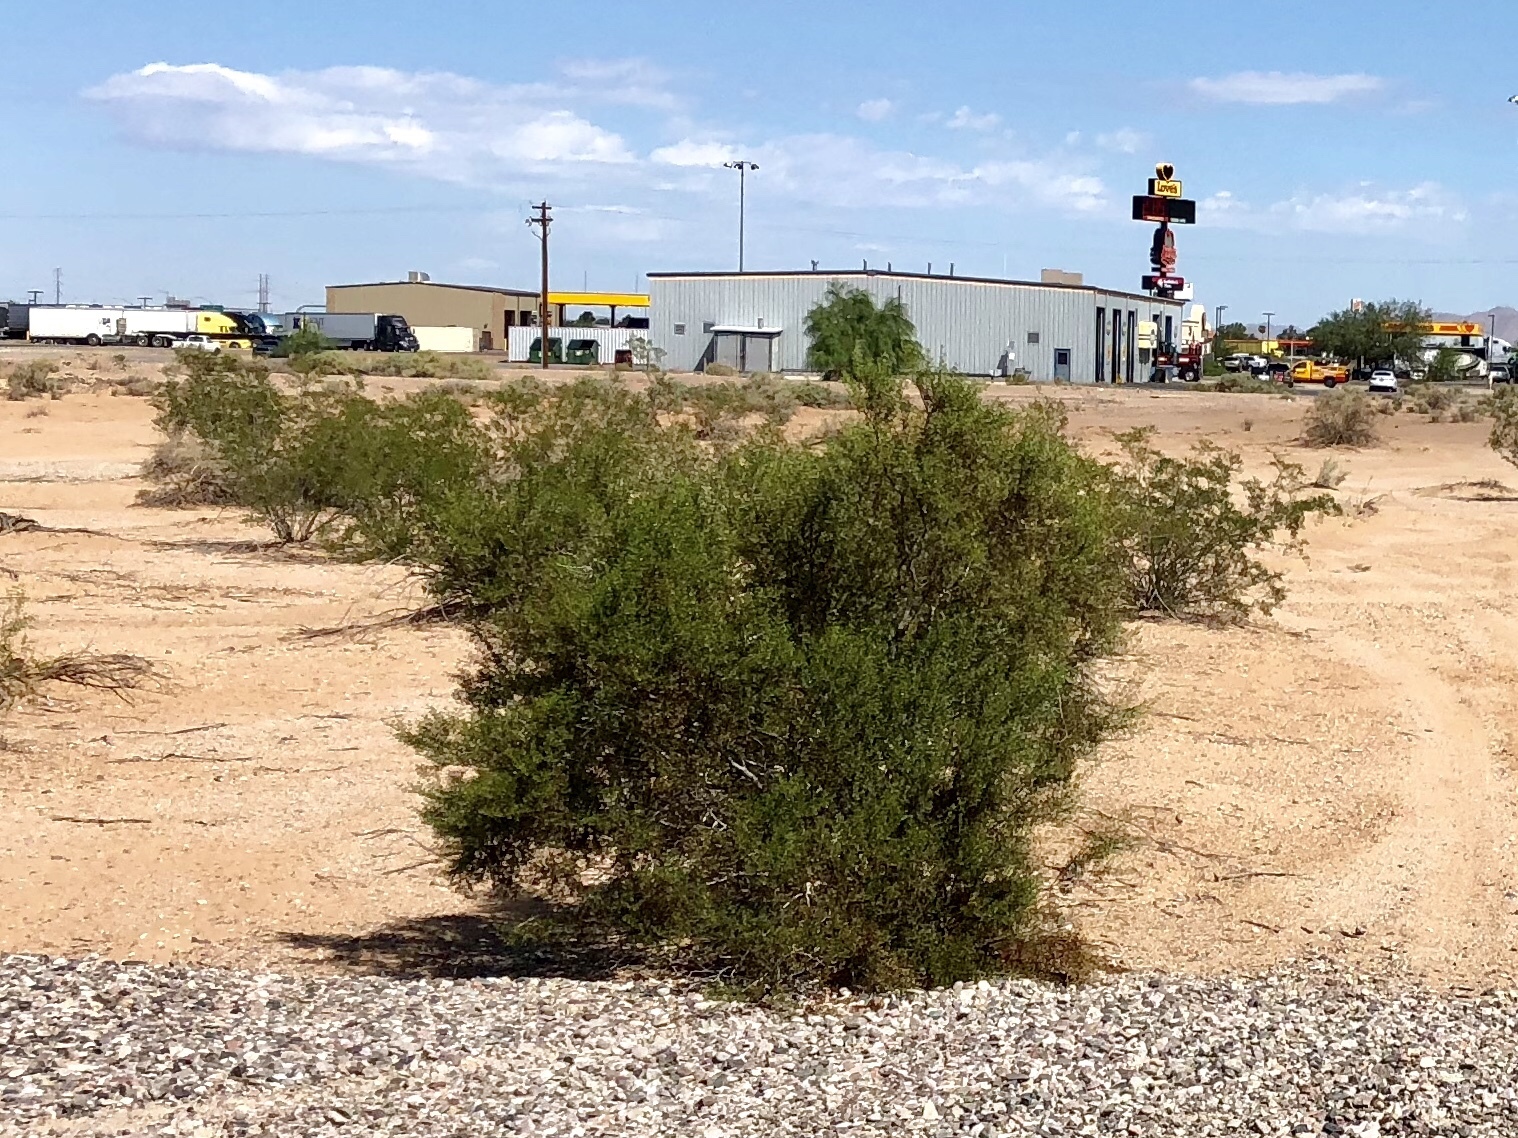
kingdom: Plantae
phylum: Tracheophyta
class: Magnoliopsida
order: Zygophyllales
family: Zygophyllaceae
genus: Larrea
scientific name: Larrea tridentata
